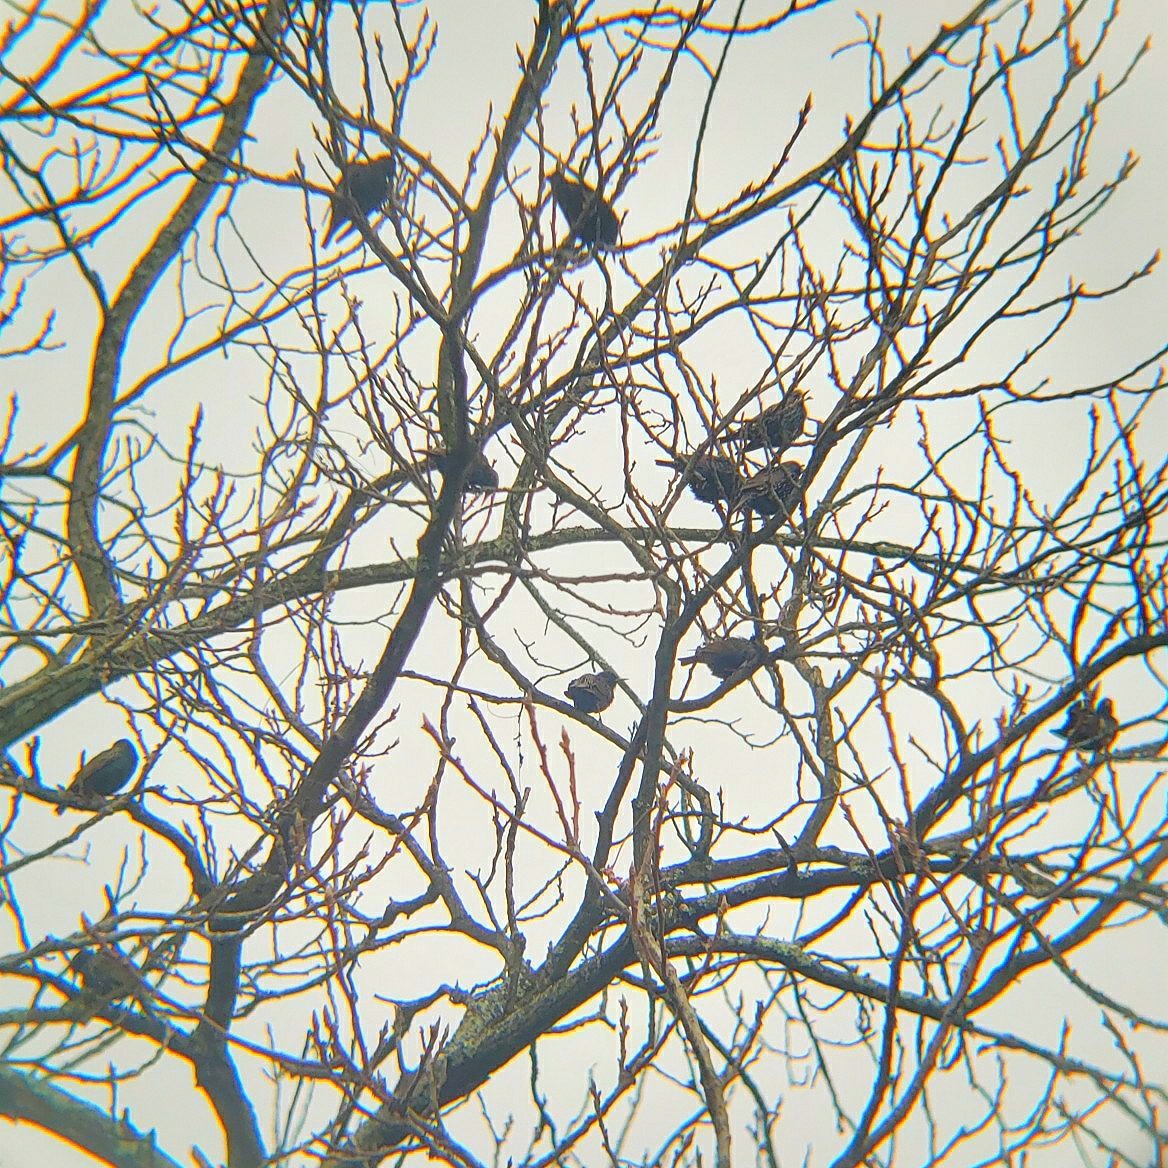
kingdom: Animalia
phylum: Chordata
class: Aves
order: Passeriformes
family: Sturnidae
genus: Sturnus
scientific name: Sturnus vulgaris
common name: Common starling
